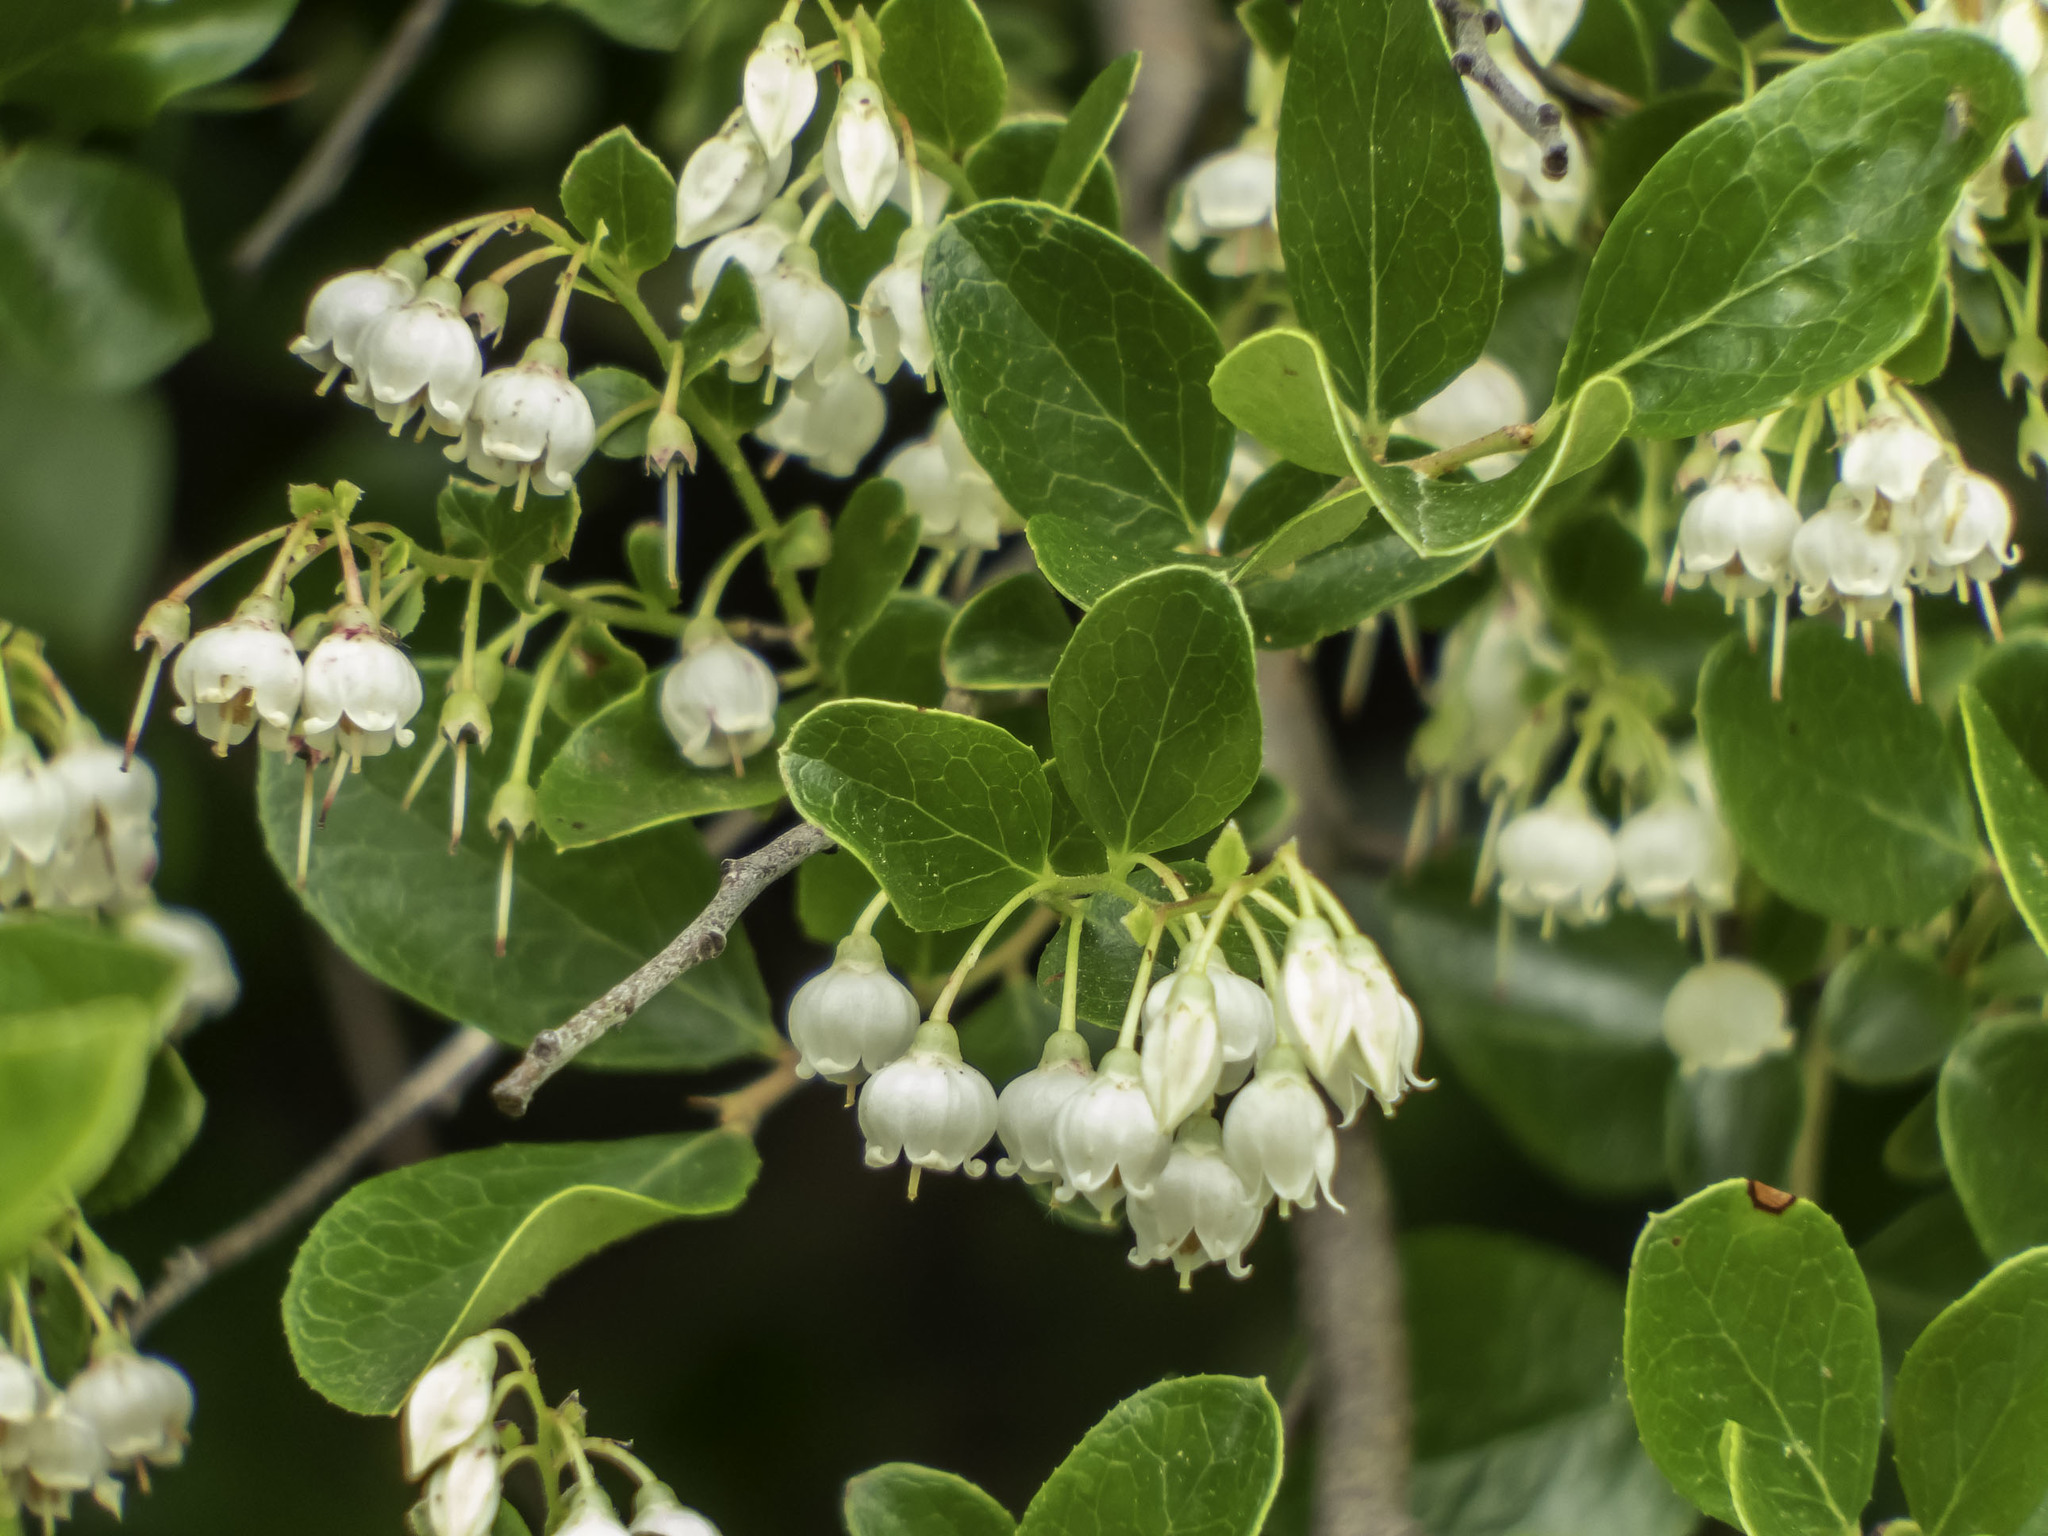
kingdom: Plantae
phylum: Tracheophyta
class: Magnoliopsida
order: Ericales
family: Ericaceae
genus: Vaccinium
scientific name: Vaccinium arboreum
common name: Farkleberry
